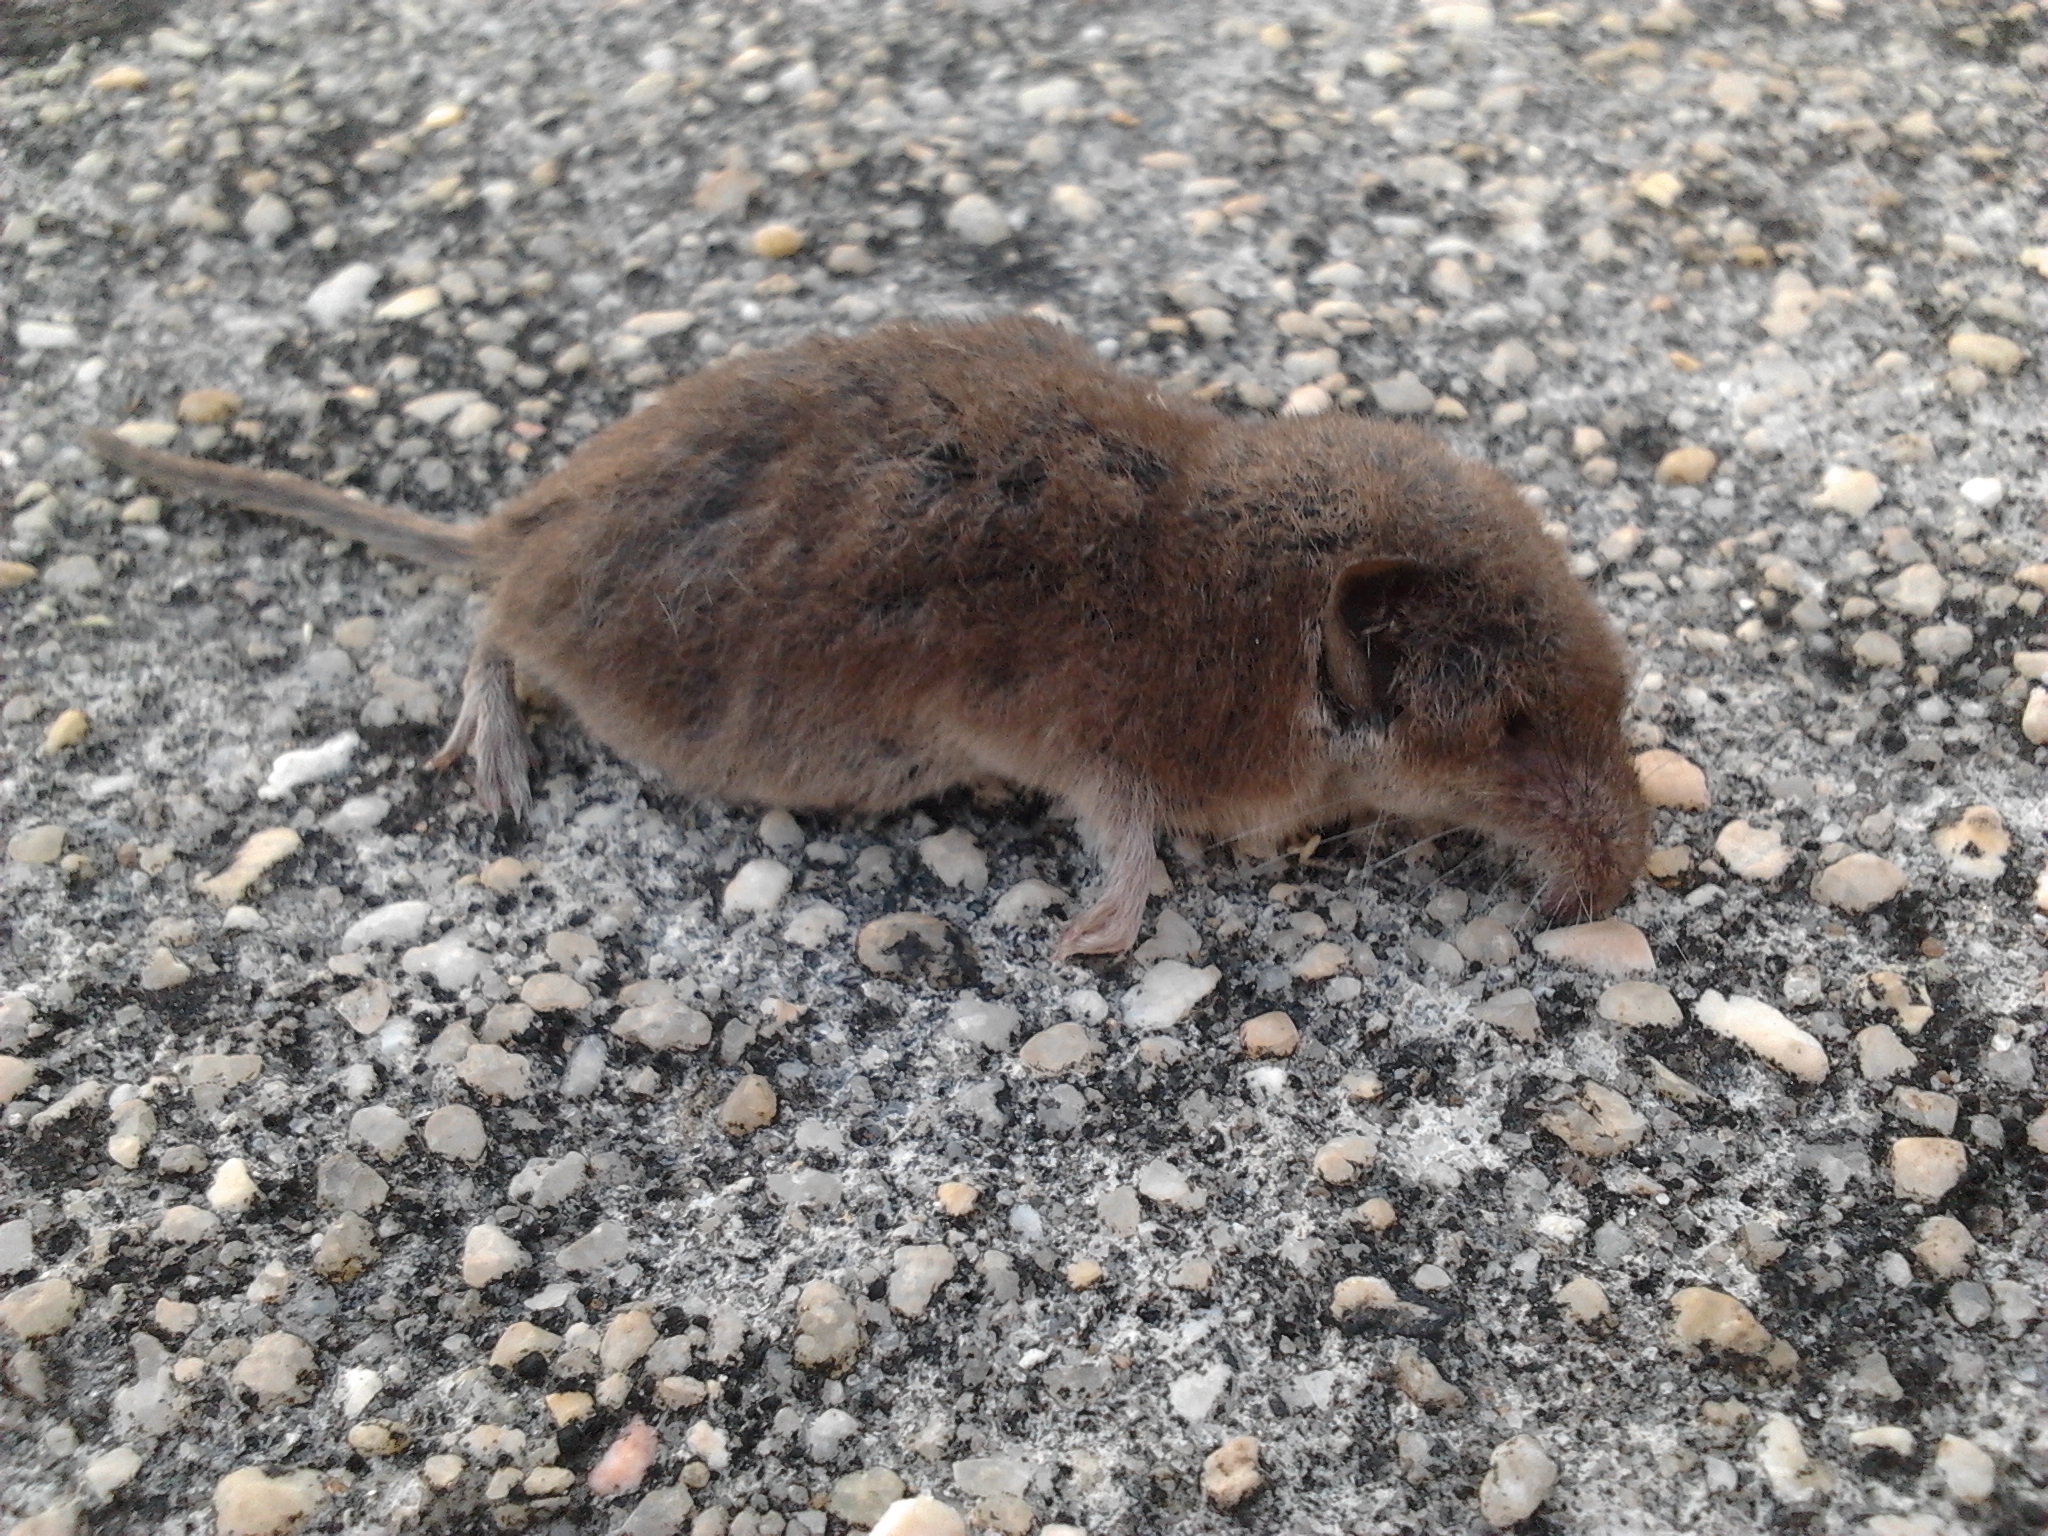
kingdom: Animalia
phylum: Chordata
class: Mammalia
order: Soricomorpha
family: Soricidae
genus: Crocidura
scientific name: Crocidura russula
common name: Greater white-toothed shrew
